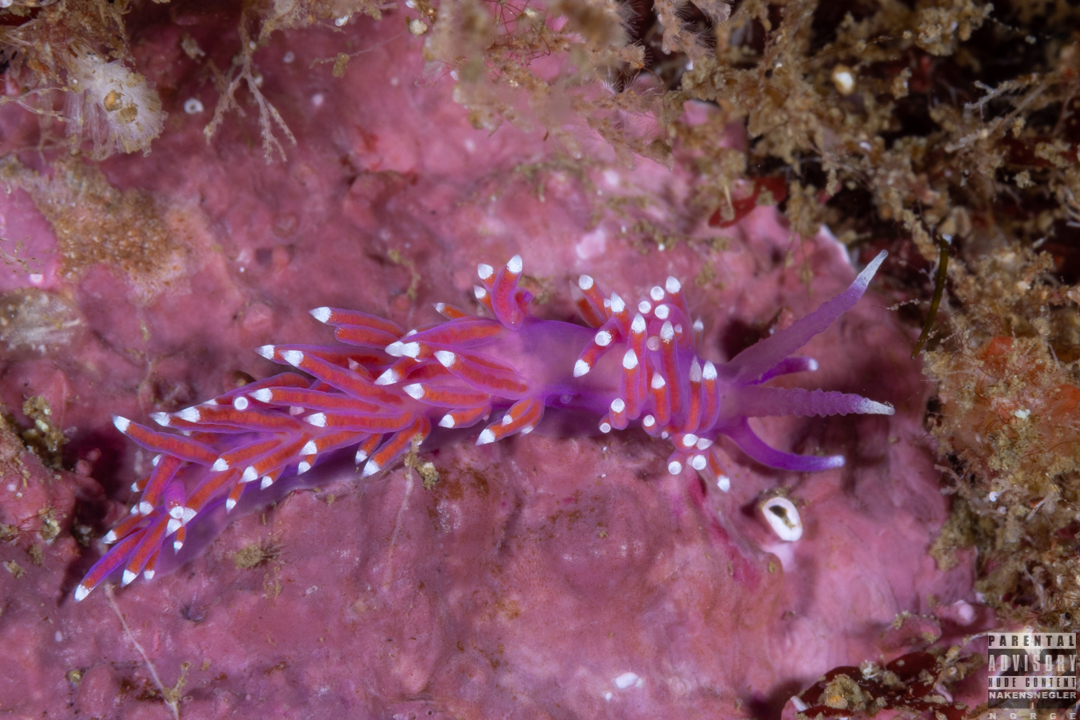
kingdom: Animalia
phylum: Mollusca
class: Gastropoda
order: Nudibranchia
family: Flabellinidae
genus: Edmundsella
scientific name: Edmundsella pedata
